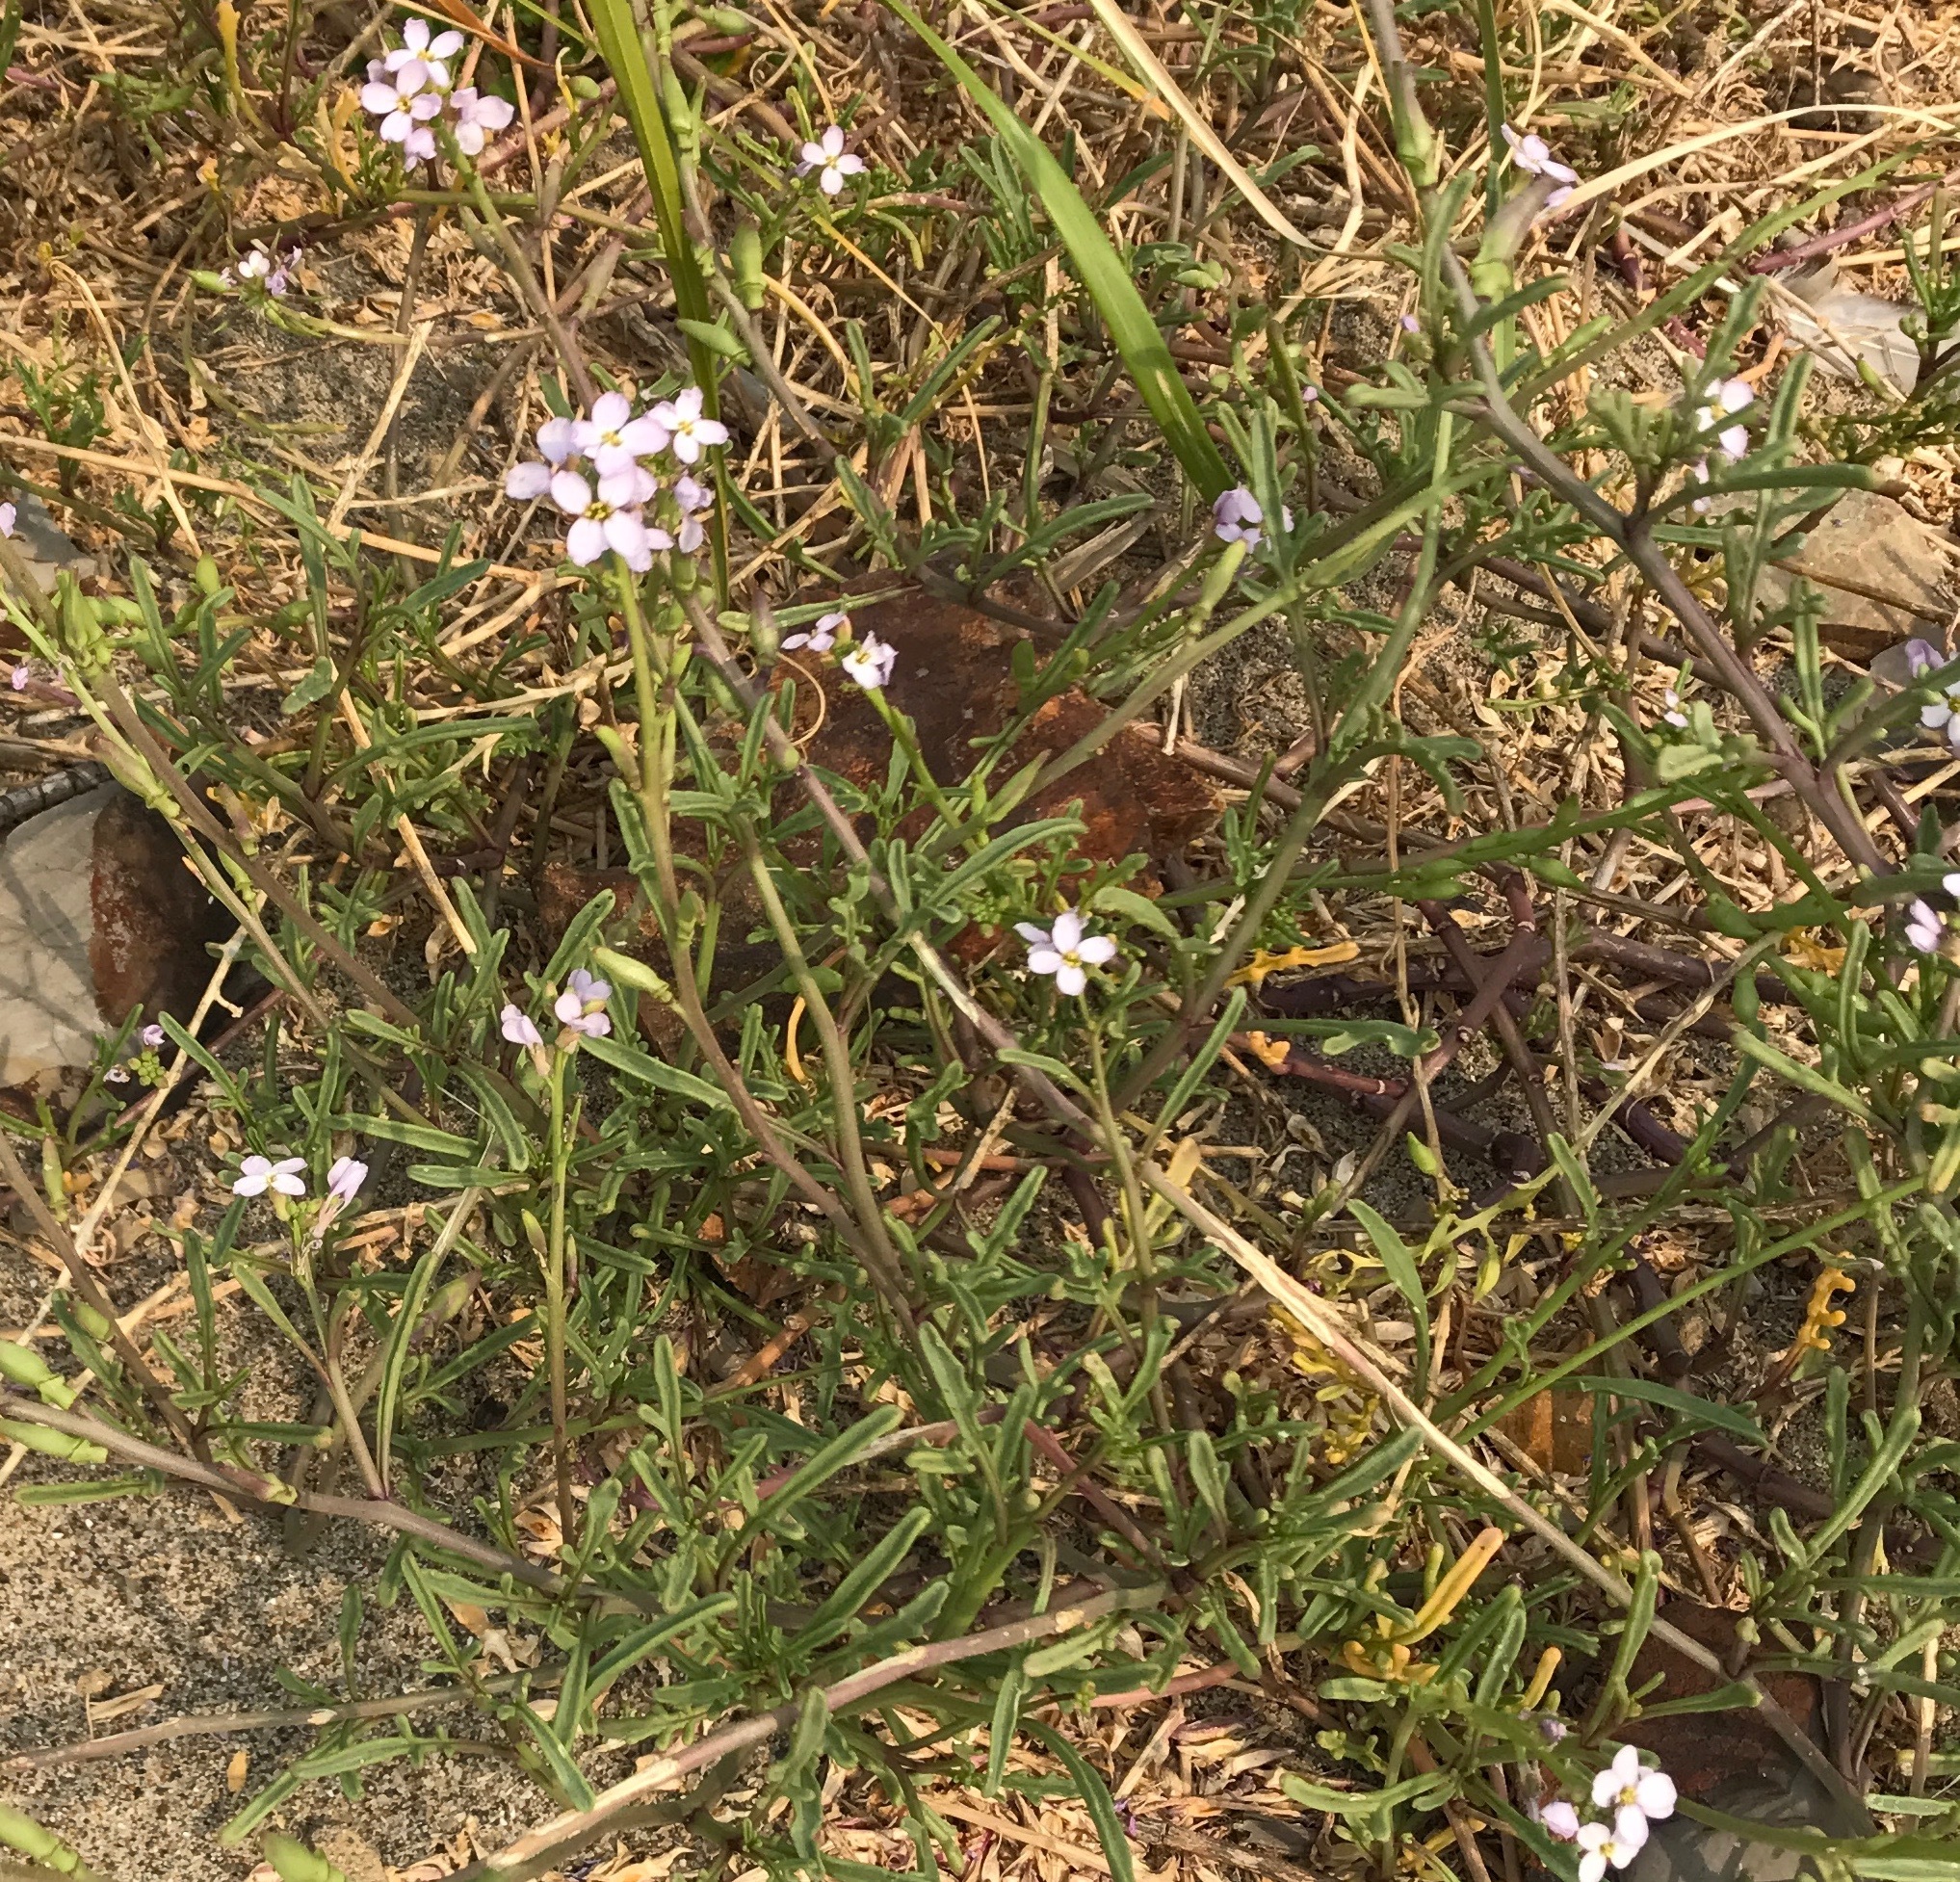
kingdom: Plantae
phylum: Tracheophyta
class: Magnoliopsida
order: Brassicales
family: Brassicaceae
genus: Cakile
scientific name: Cakile maritima
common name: Sea rocket
